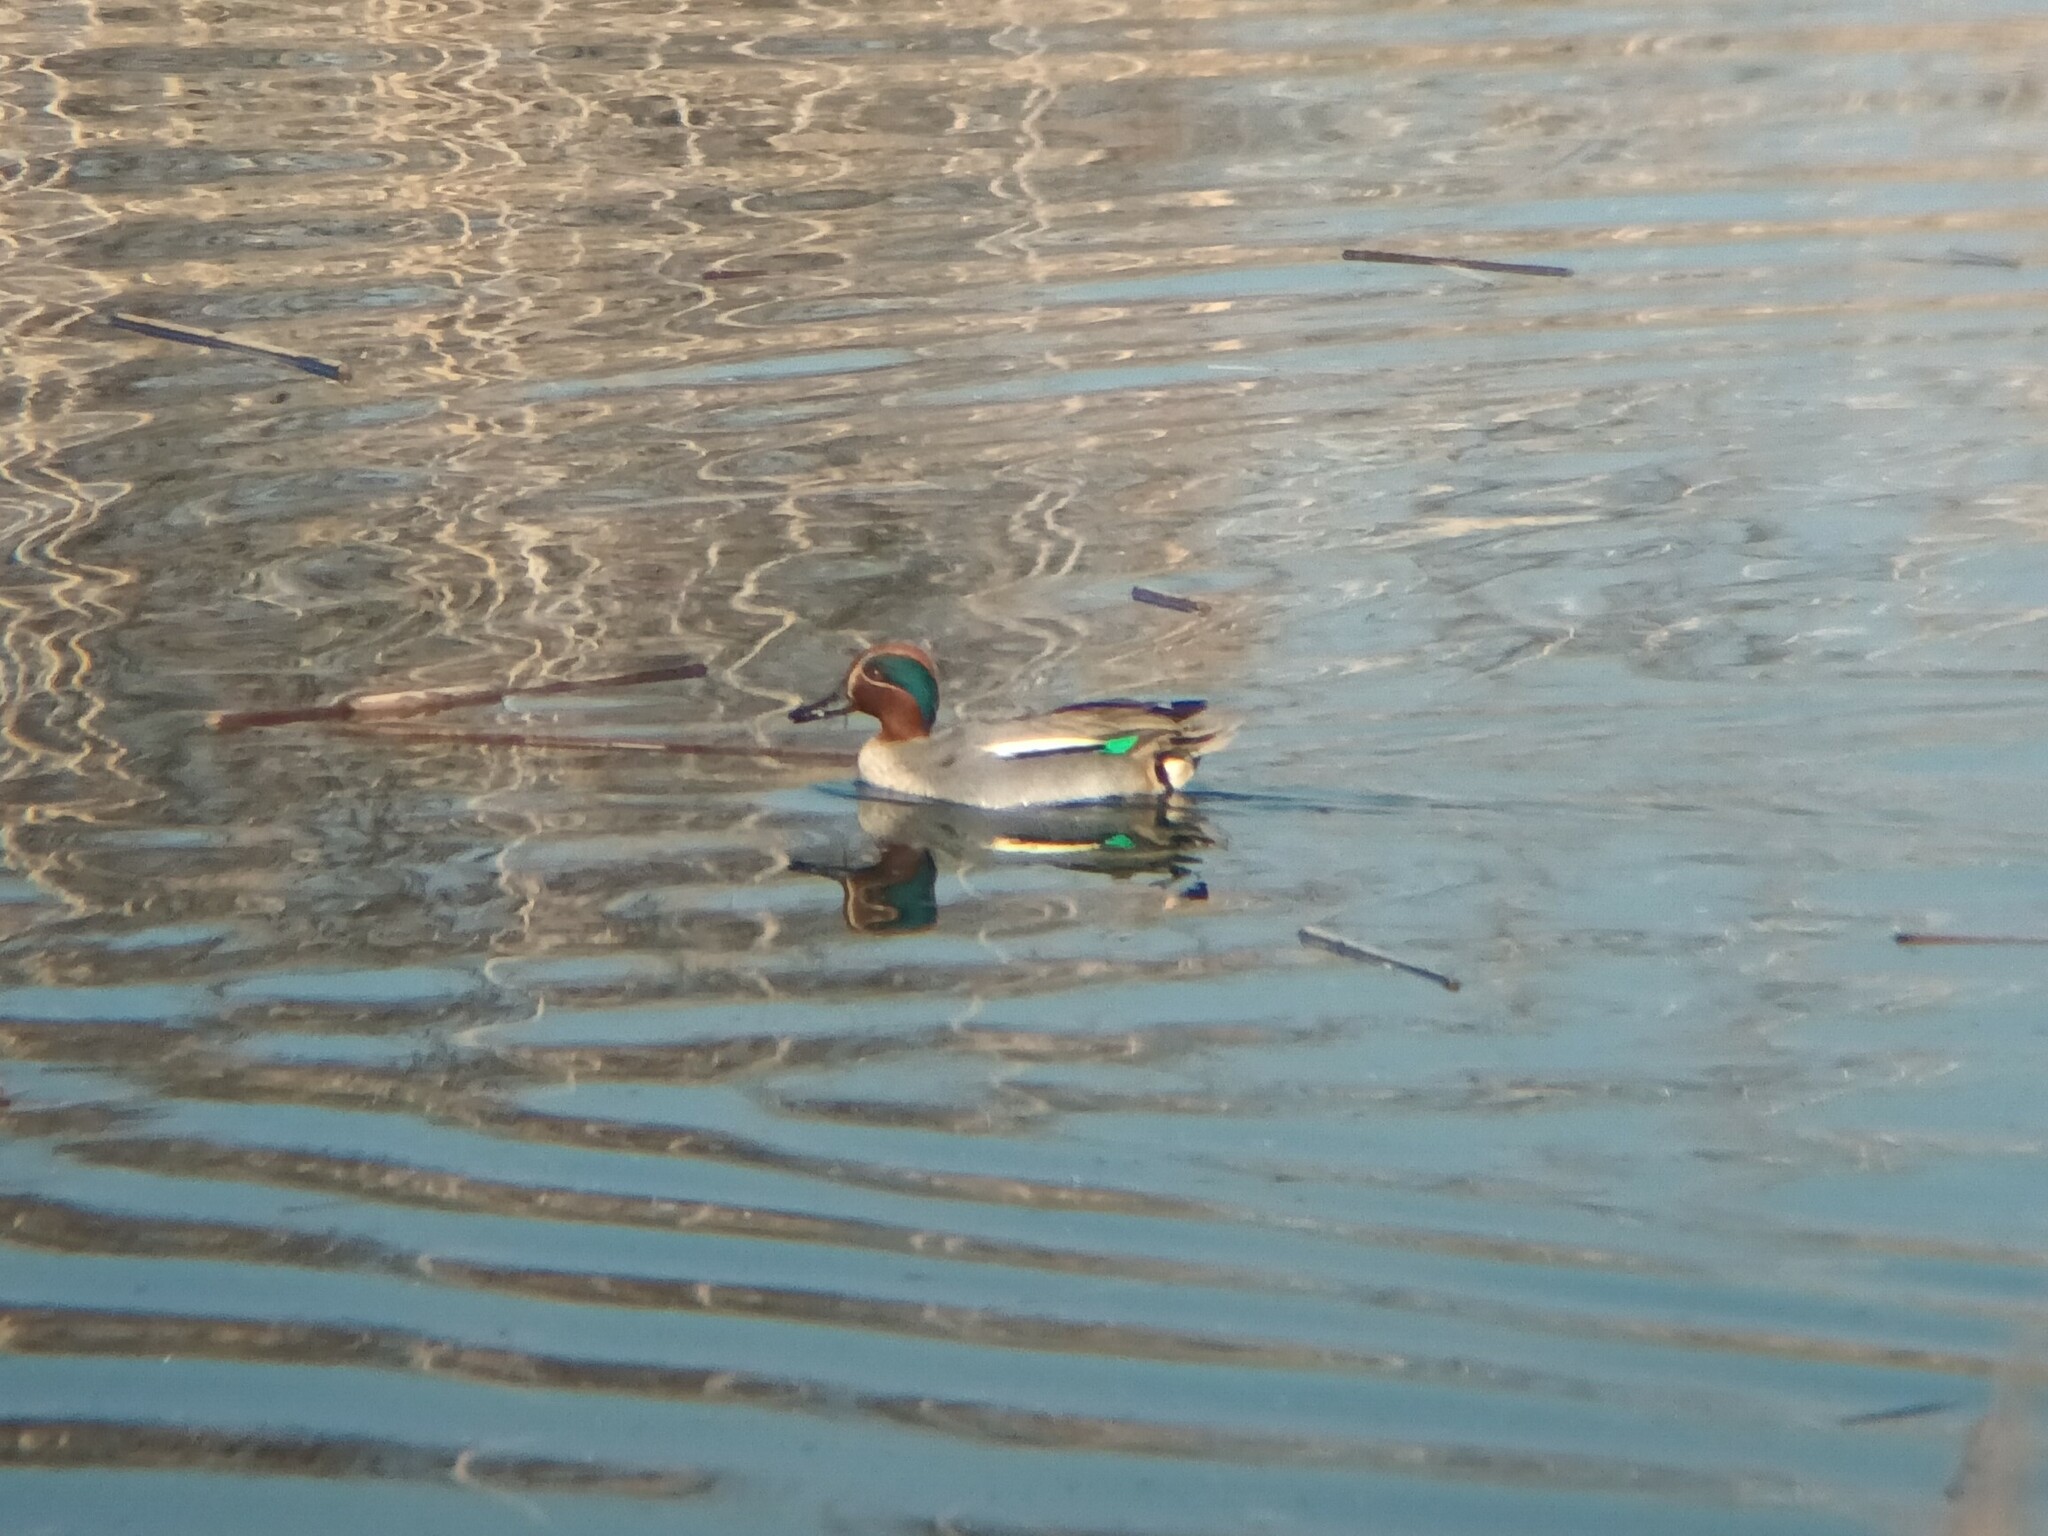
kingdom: Animalia
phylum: Chordata
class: Aves
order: Anseriformes
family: Anatidae
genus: Anas
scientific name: Anas crecca
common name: Eurasian teal
